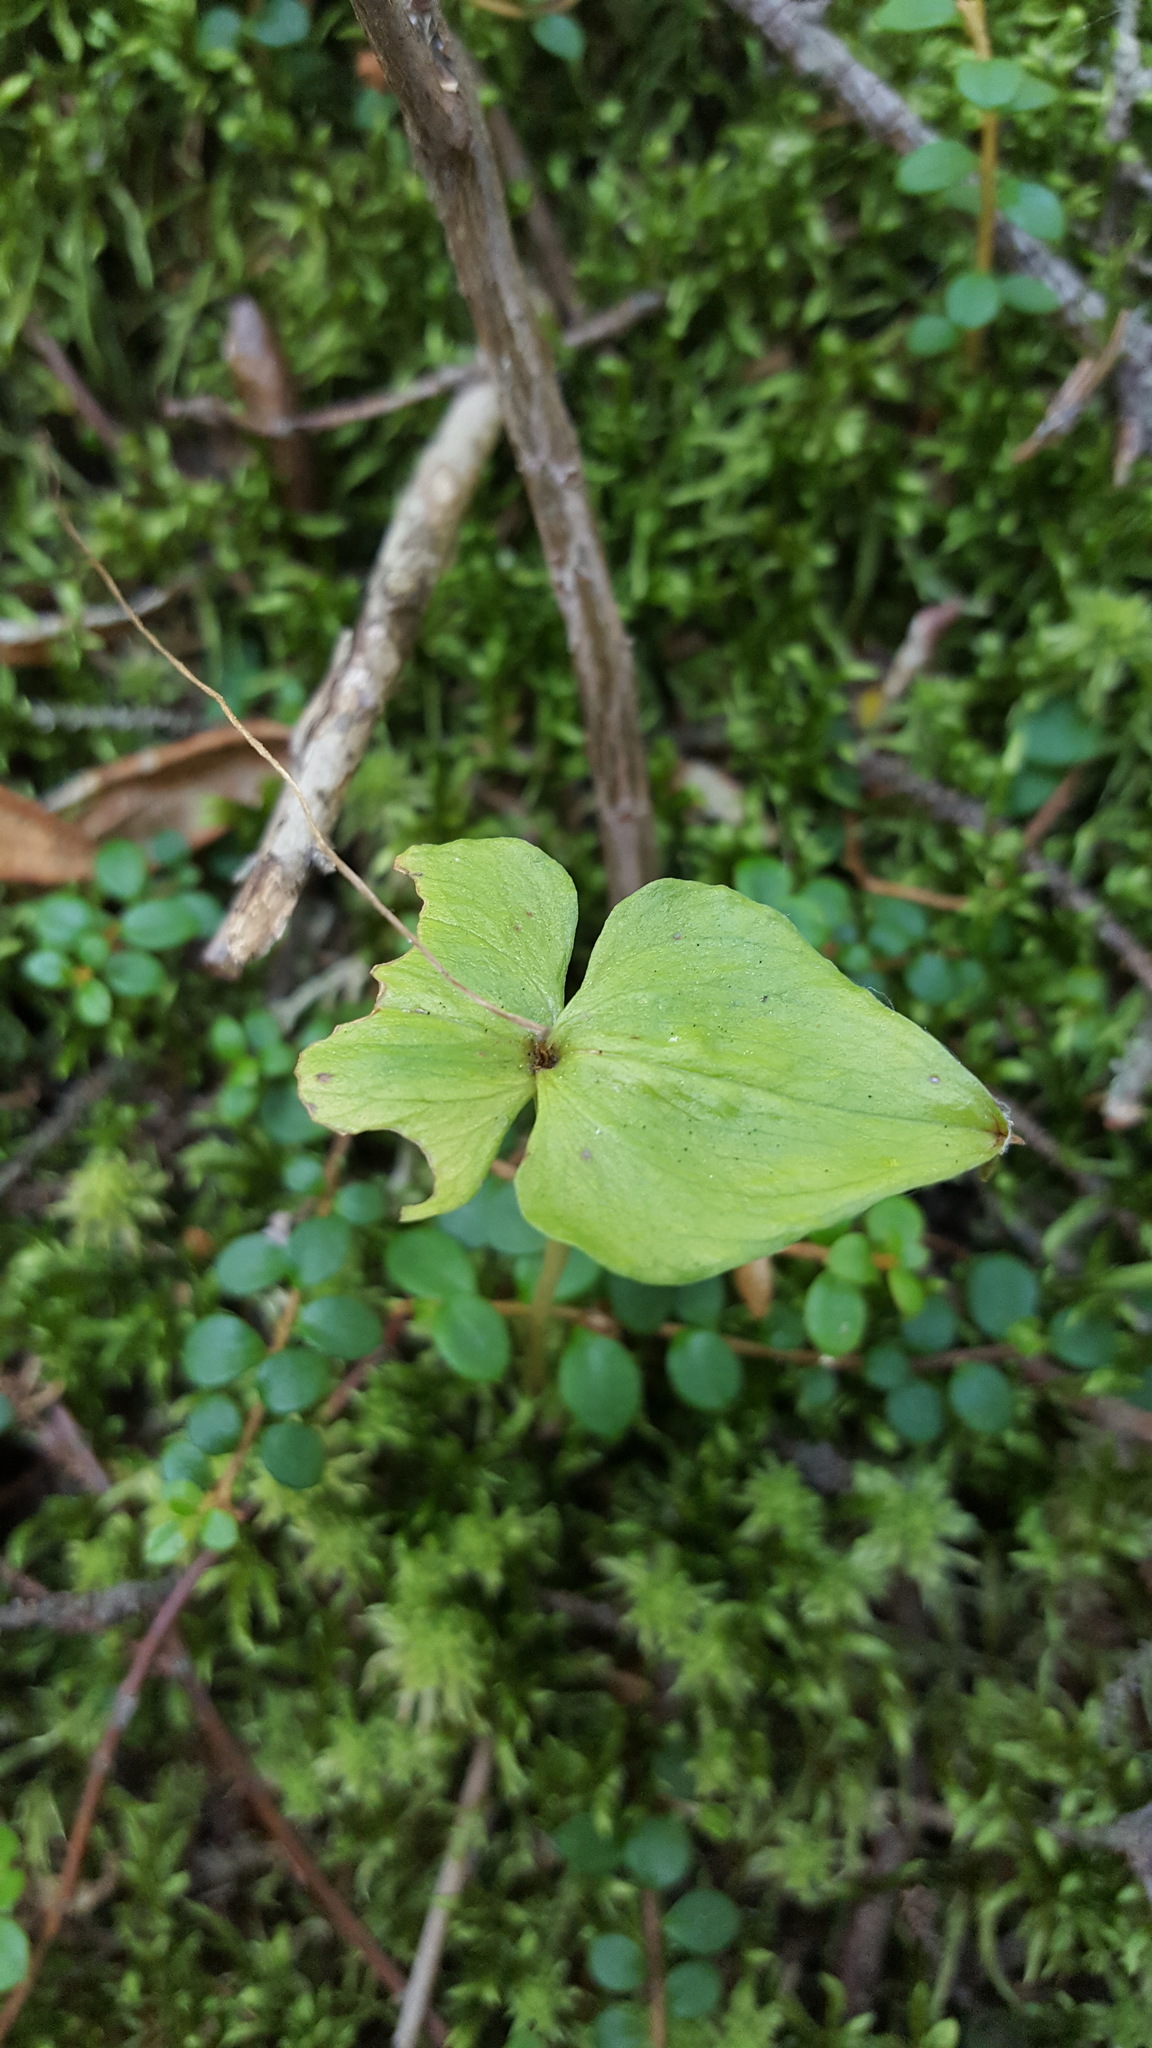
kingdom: Plantae
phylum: Tracheophyta
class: Liliopsida
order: Asparagales
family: Orchidaceae
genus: Neottia
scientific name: Neottia cordata
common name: Lesser twayblade
